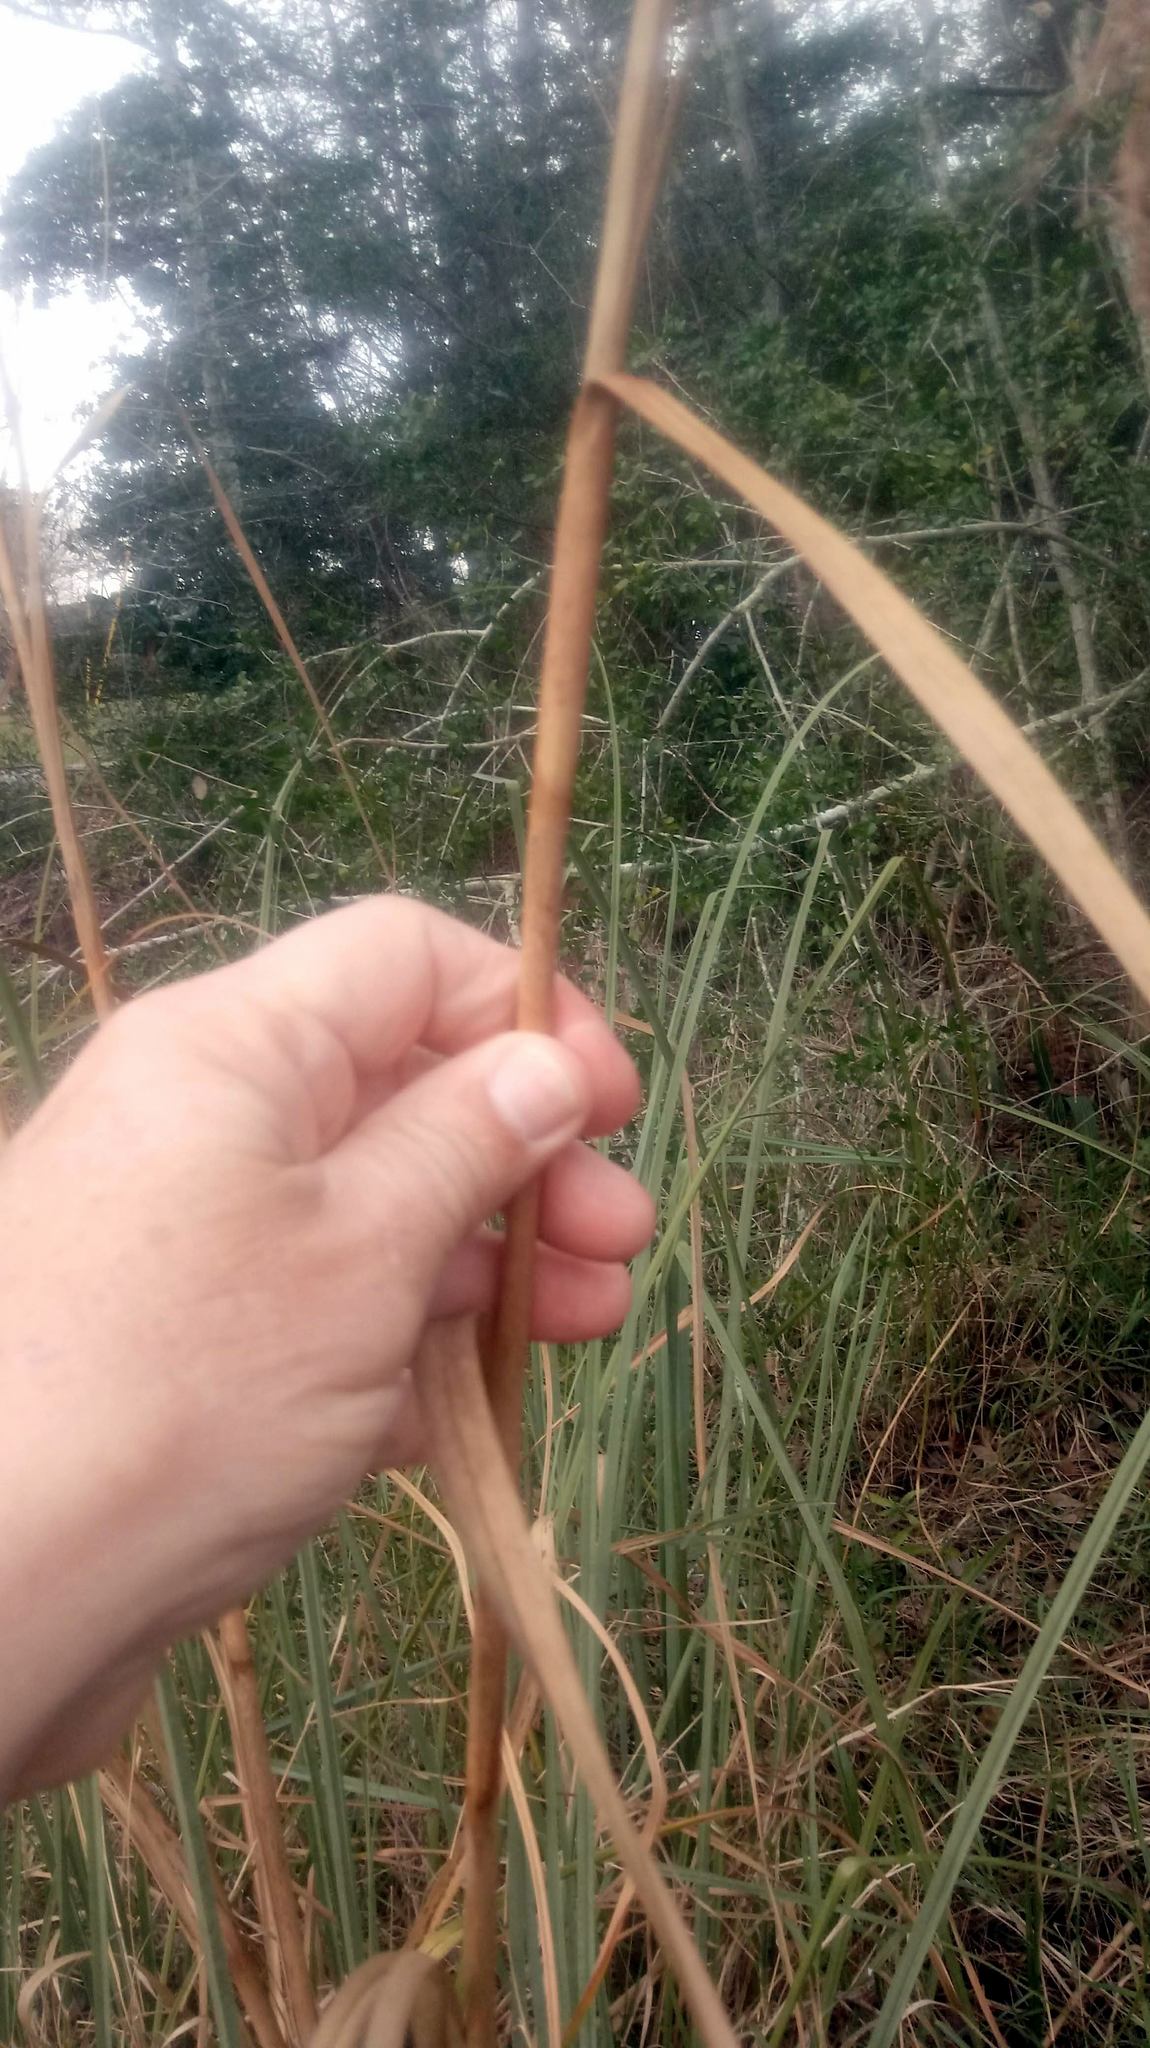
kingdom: Plantae
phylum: Tracheophyta
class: Liliopsida
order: Poales
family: Cyperaceae
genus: Cladium
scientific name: Cladium mariscus
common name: Great fen-sedge
